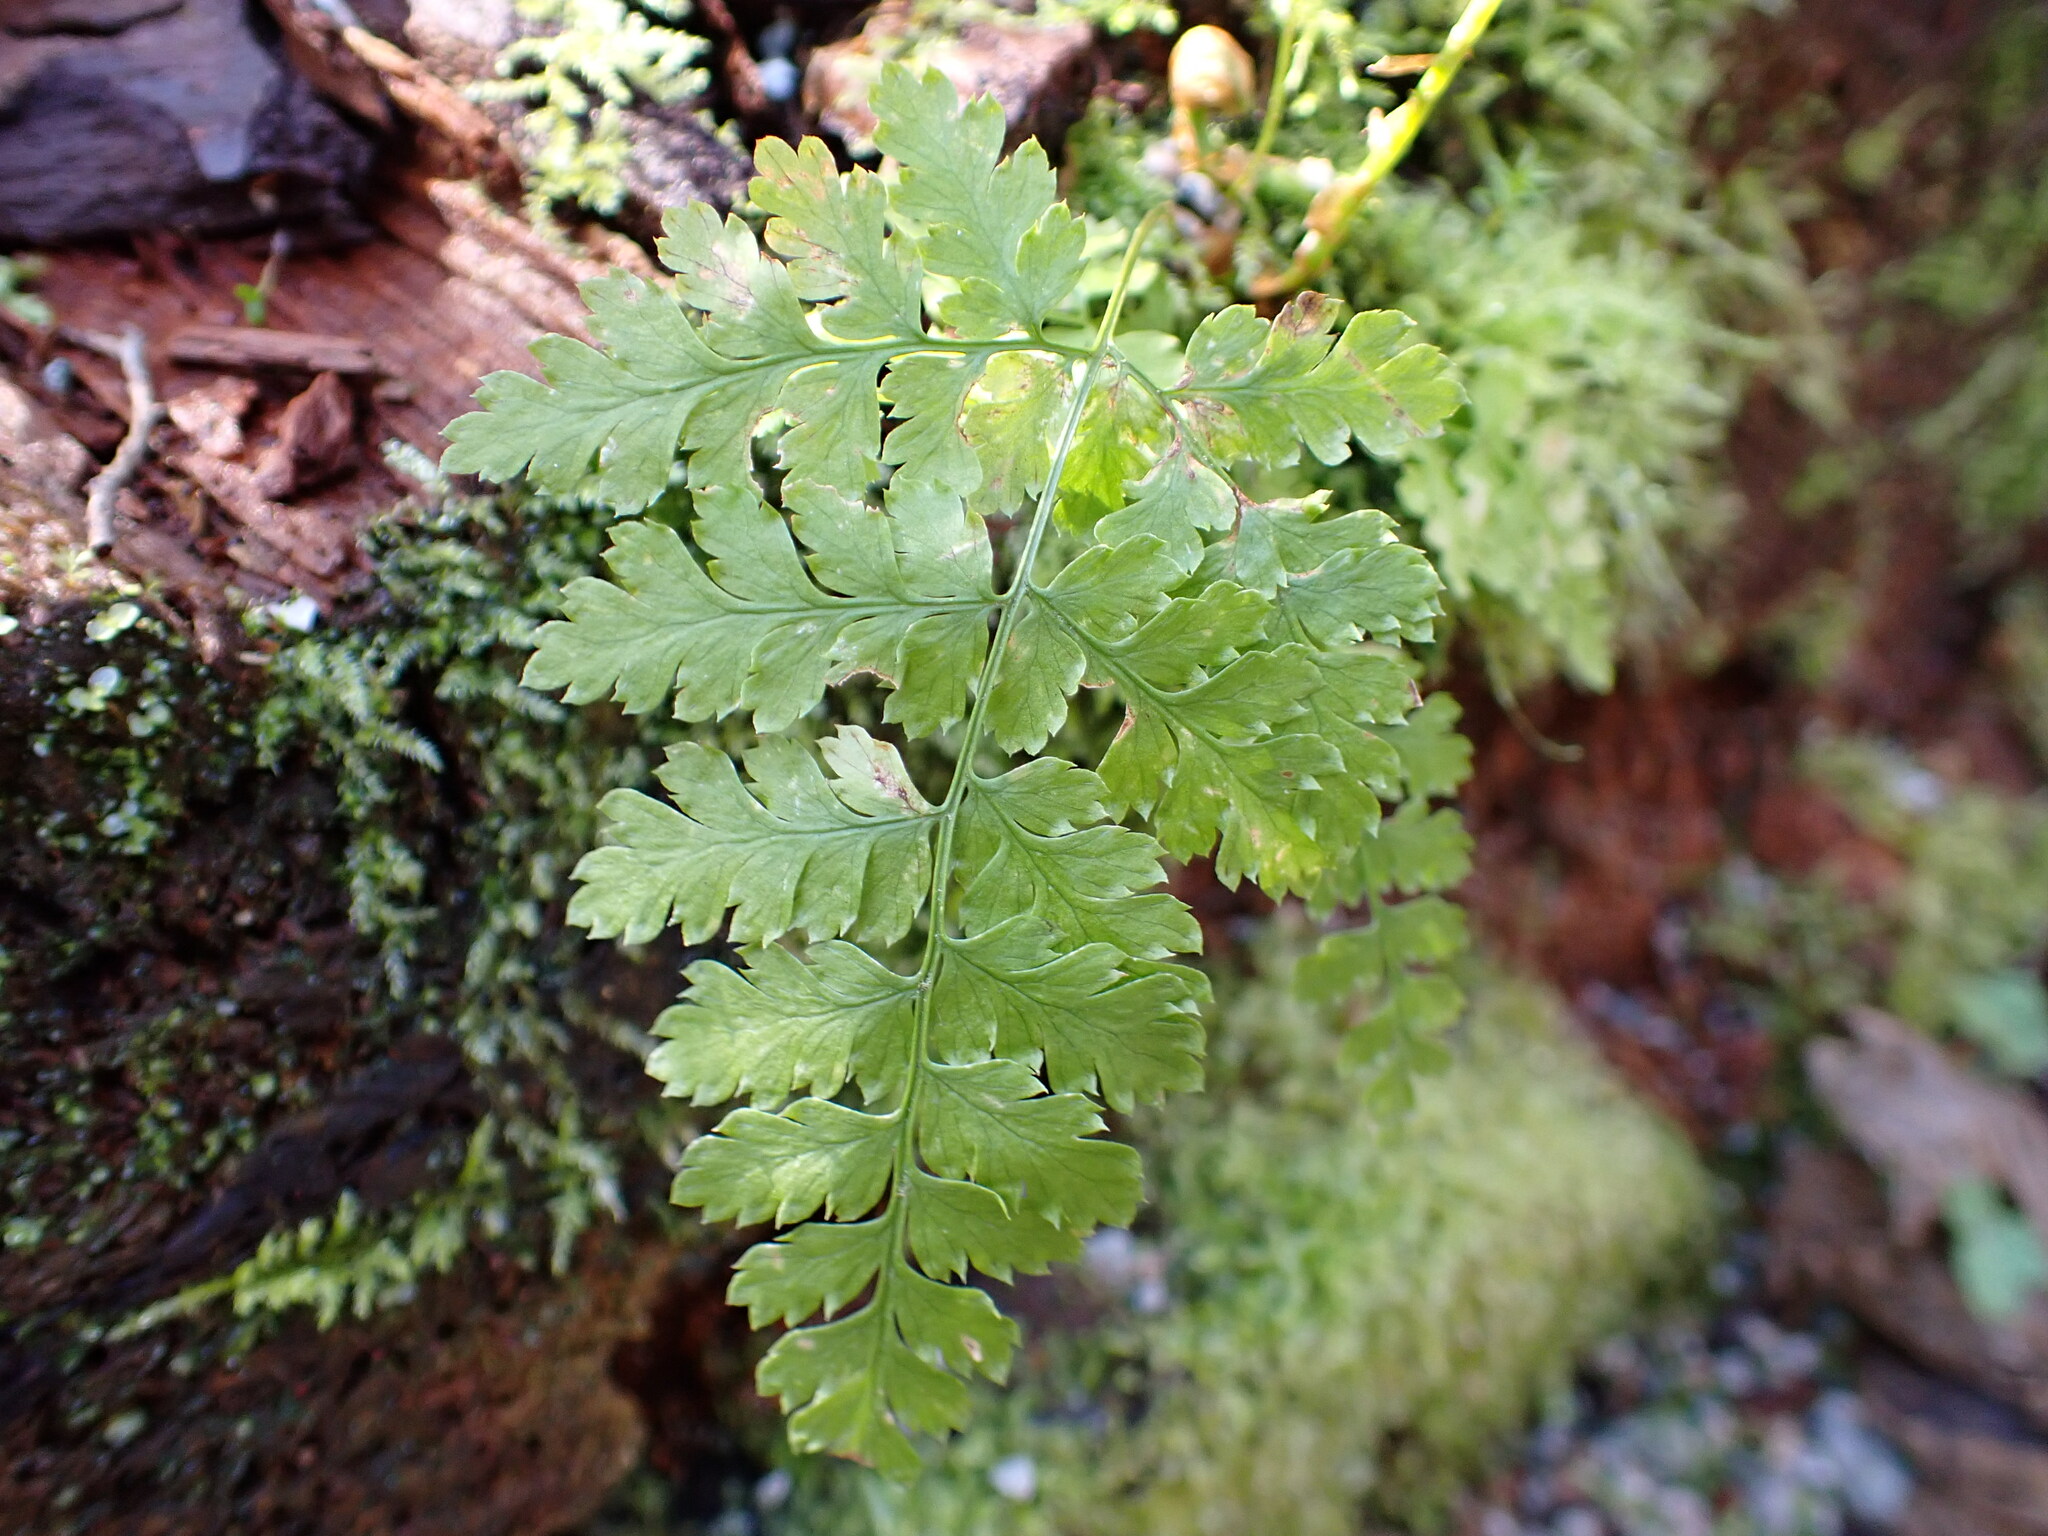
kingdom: Plantae
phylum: Tracheophyta
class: Polypodiopsida
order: Polypodiales
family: Dryopteridaceae
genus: Dryopteris
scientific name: Dryopteris expansa
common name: Northern buckler fern
